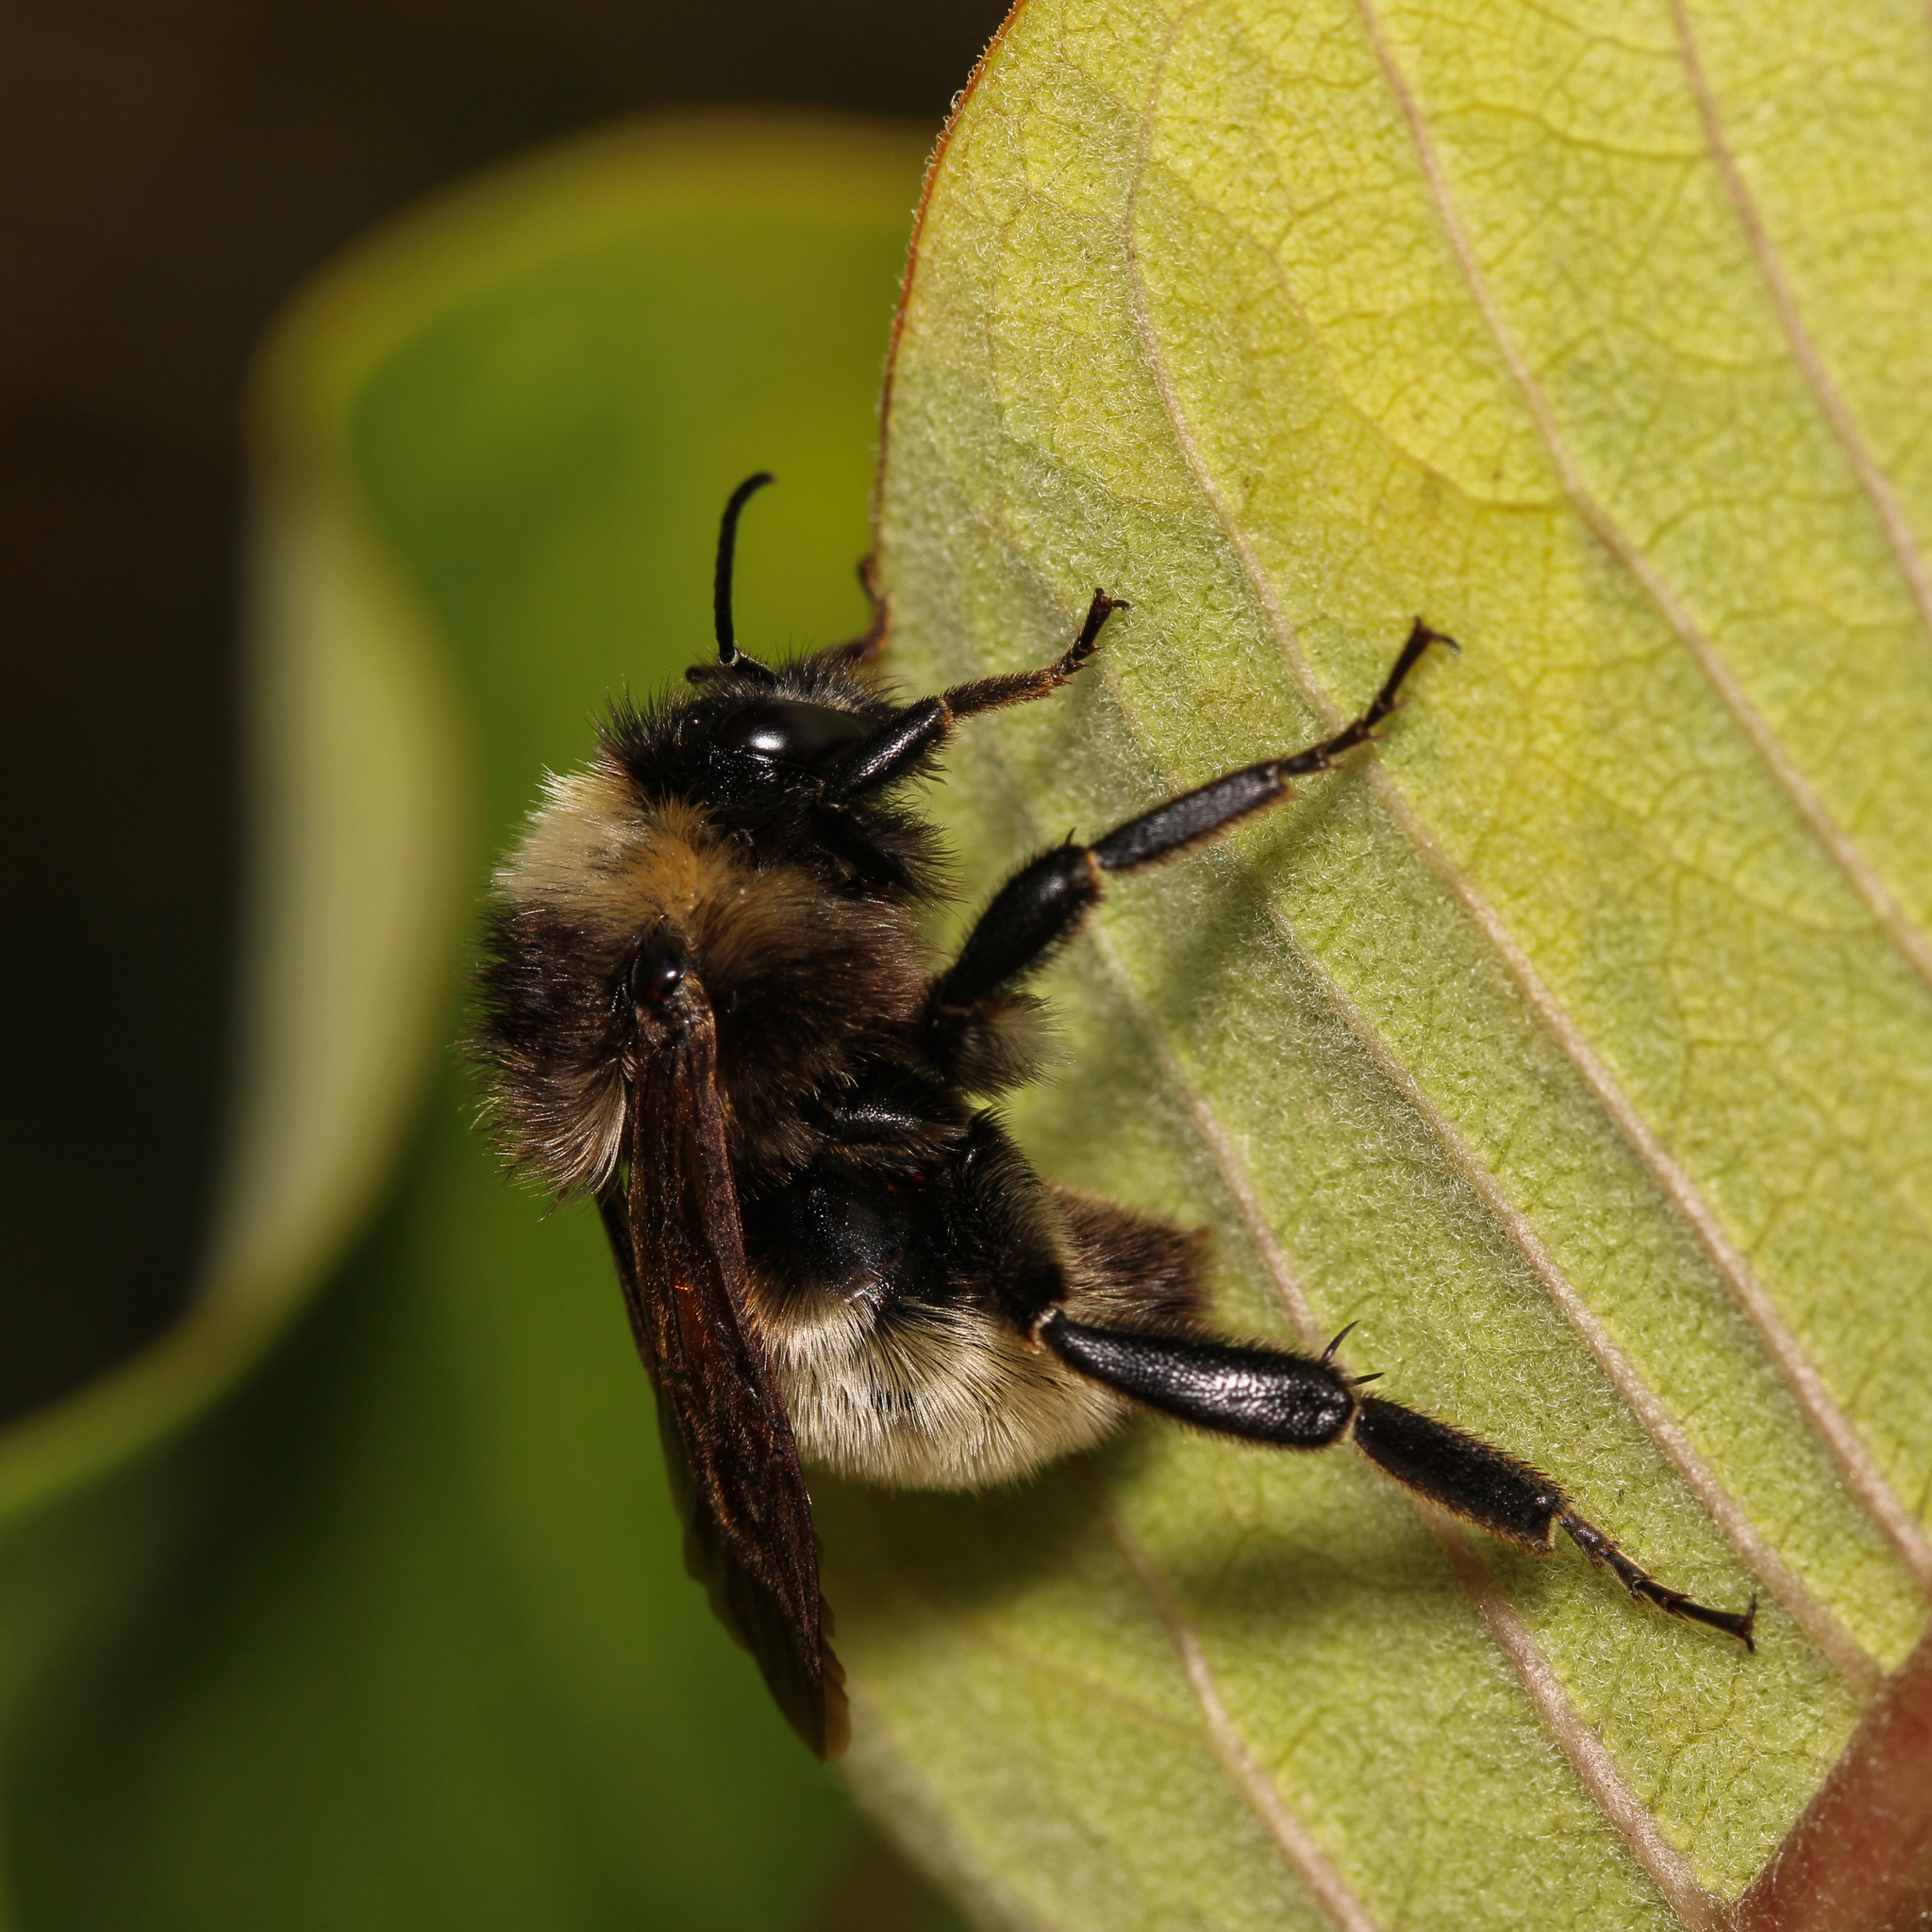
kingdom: Animalia
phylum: Arthropoda
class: Insecta
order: Hymenoptera
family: Apidae
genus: Bombus
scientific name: Bombus pensylvanicus
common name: Bumble bee
